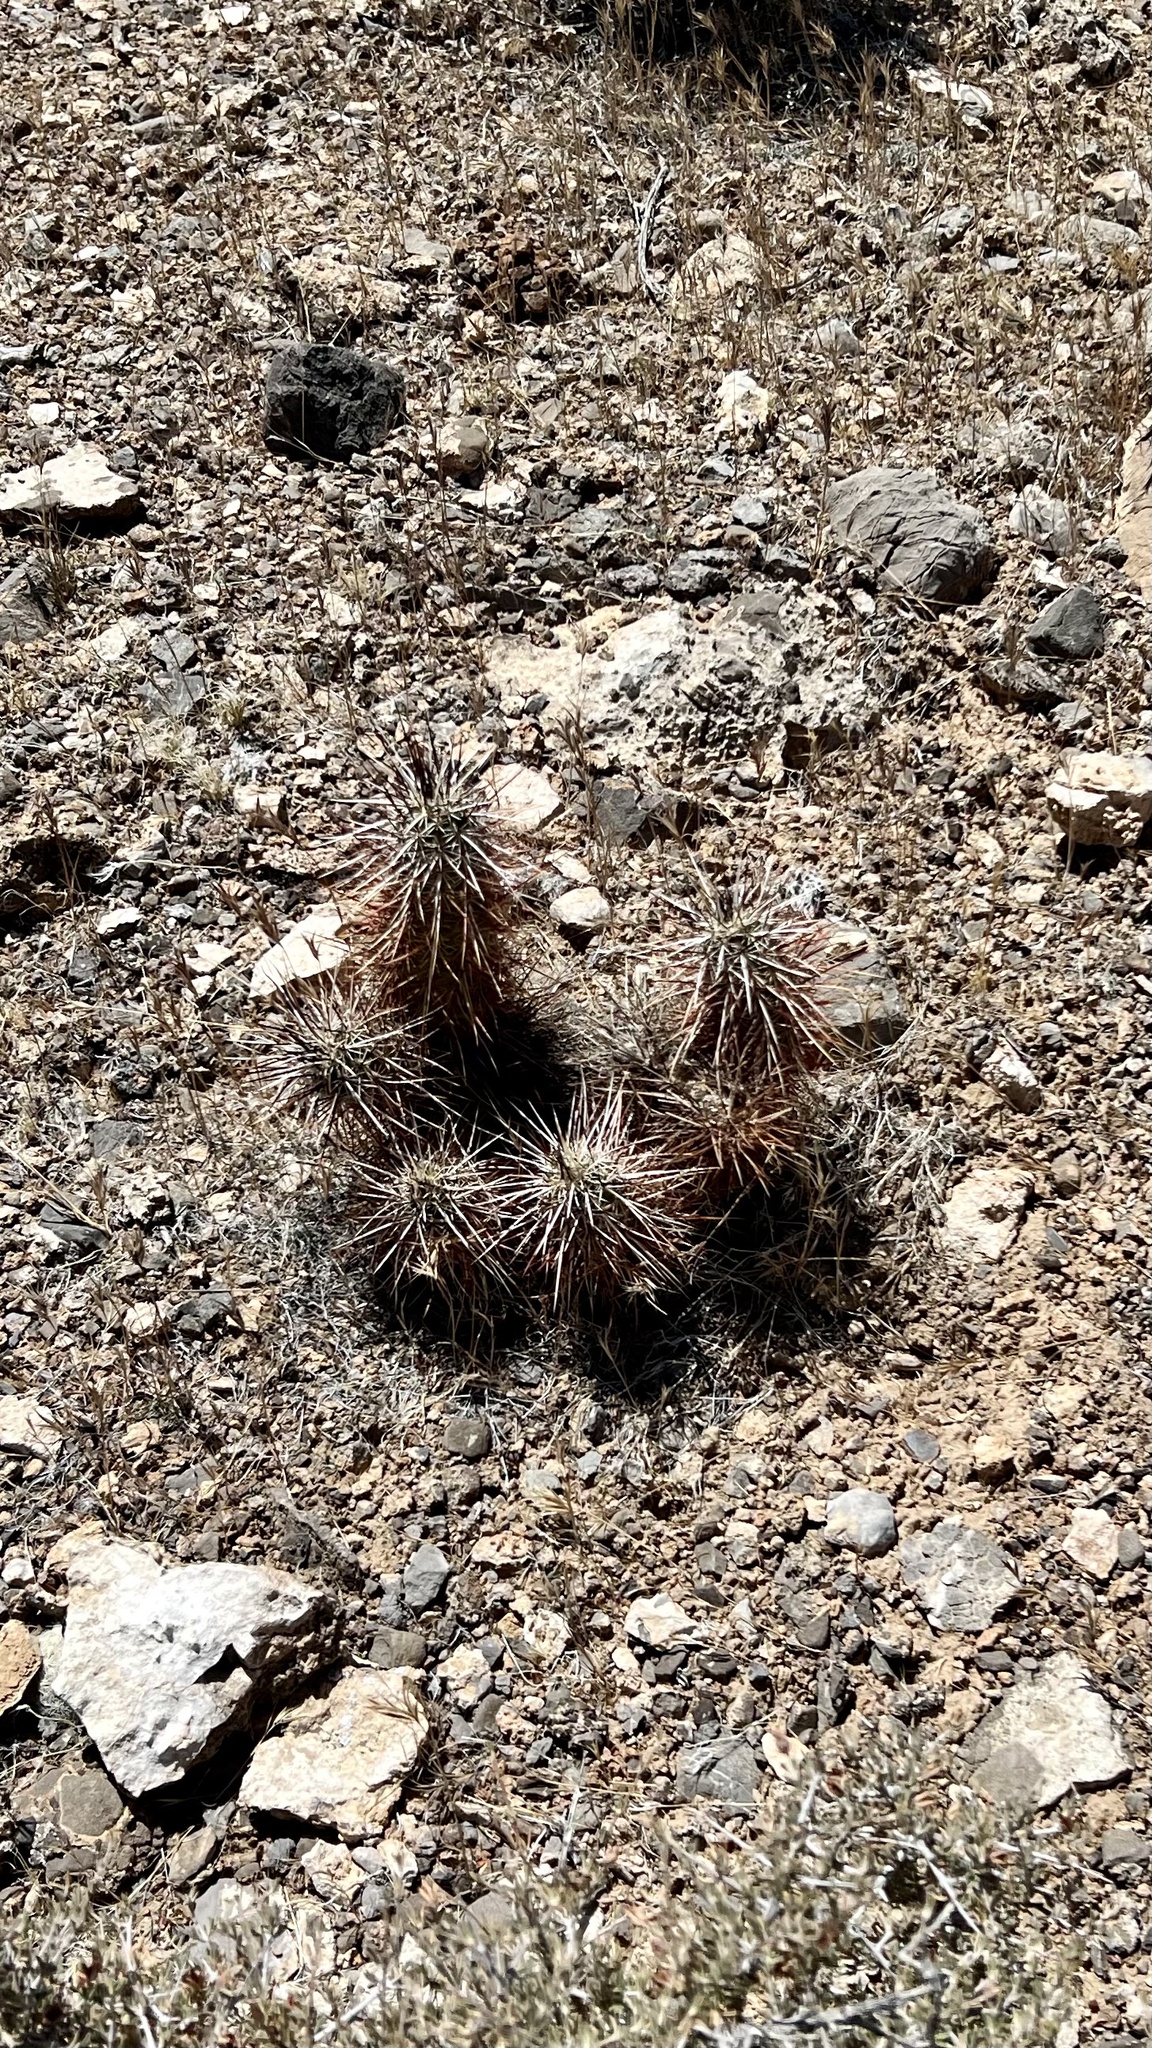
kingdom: Plantae
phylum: Tracheophyta
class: Magnoliopsida
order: Caryophyllales
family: Cactaceae
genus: Echinocereus
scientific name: Echinocereus engelmannii
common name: Engelmann's hedgehog cactus
